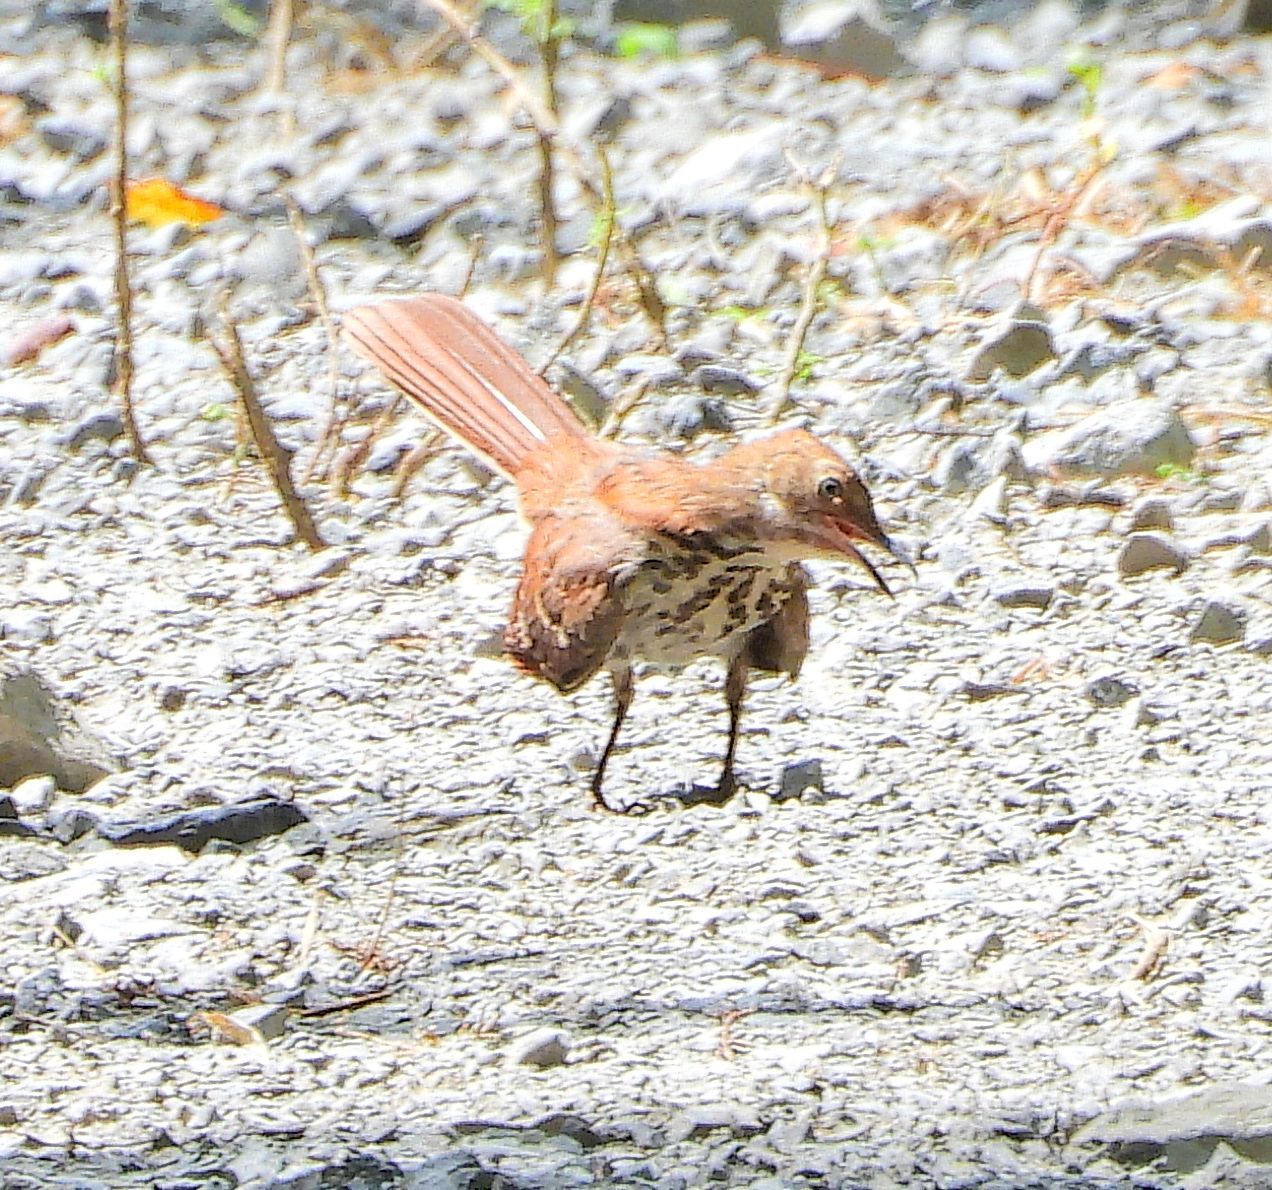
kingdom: Animalia
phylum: Chordata
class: Aves
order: Passeriformes
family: Mimidae
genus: Toxostoma
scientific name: Toxostoma rufum
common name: Brown thrasher
